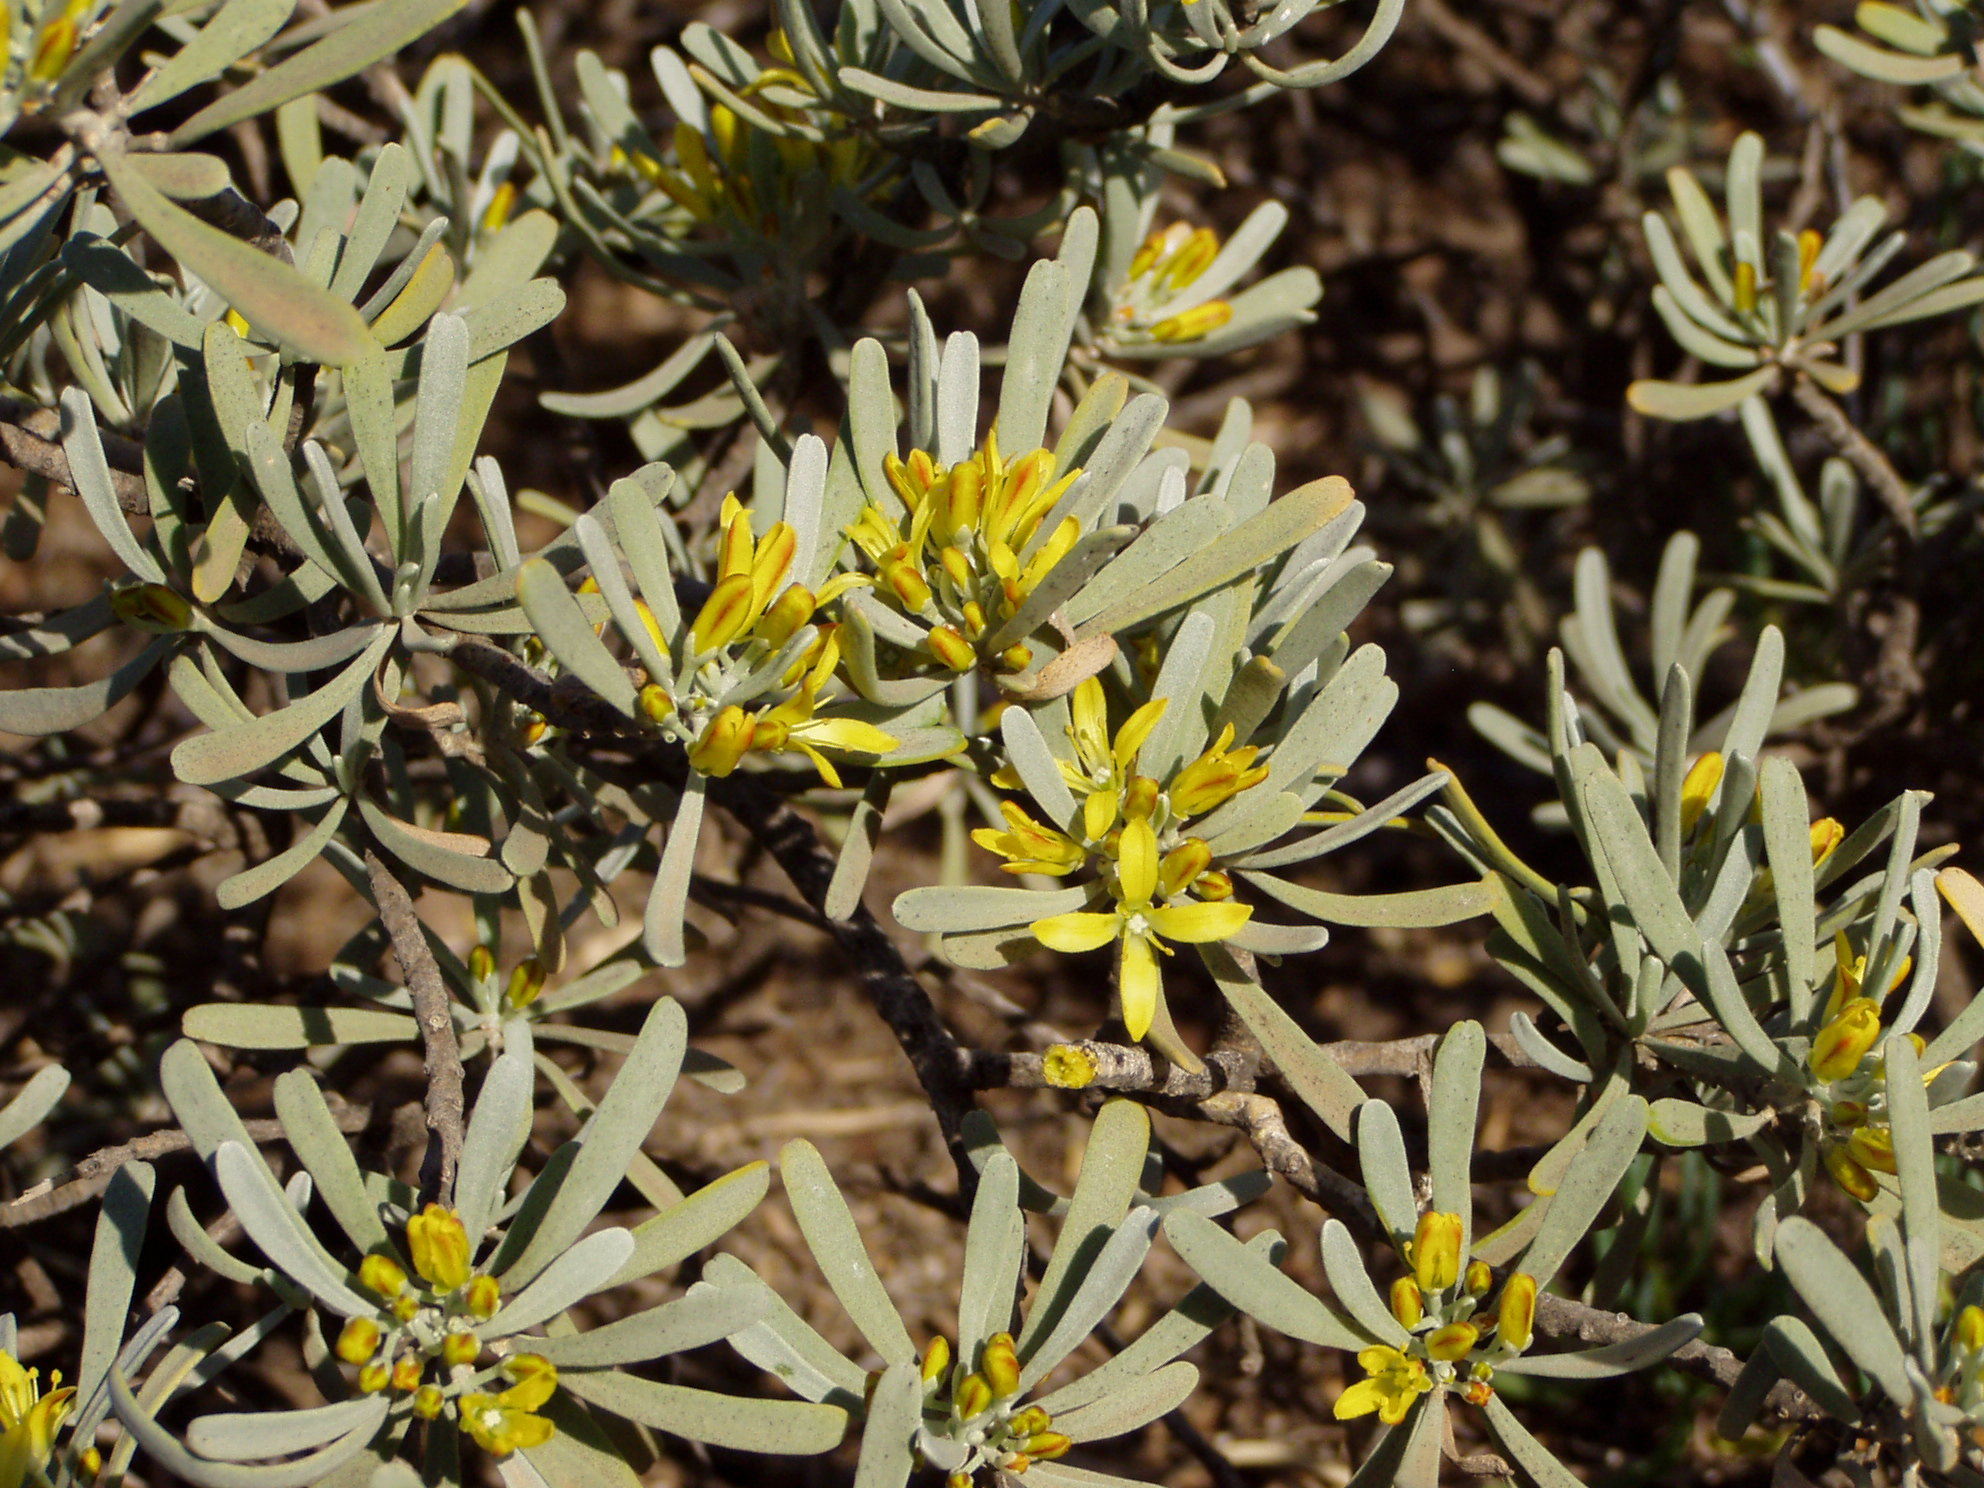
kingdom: Plantae
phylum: Tracheophyta
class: Magnoliopsida
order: Sapindales
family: Rutaceae
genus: Cneorum
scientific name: Cneorum pulverulentum
